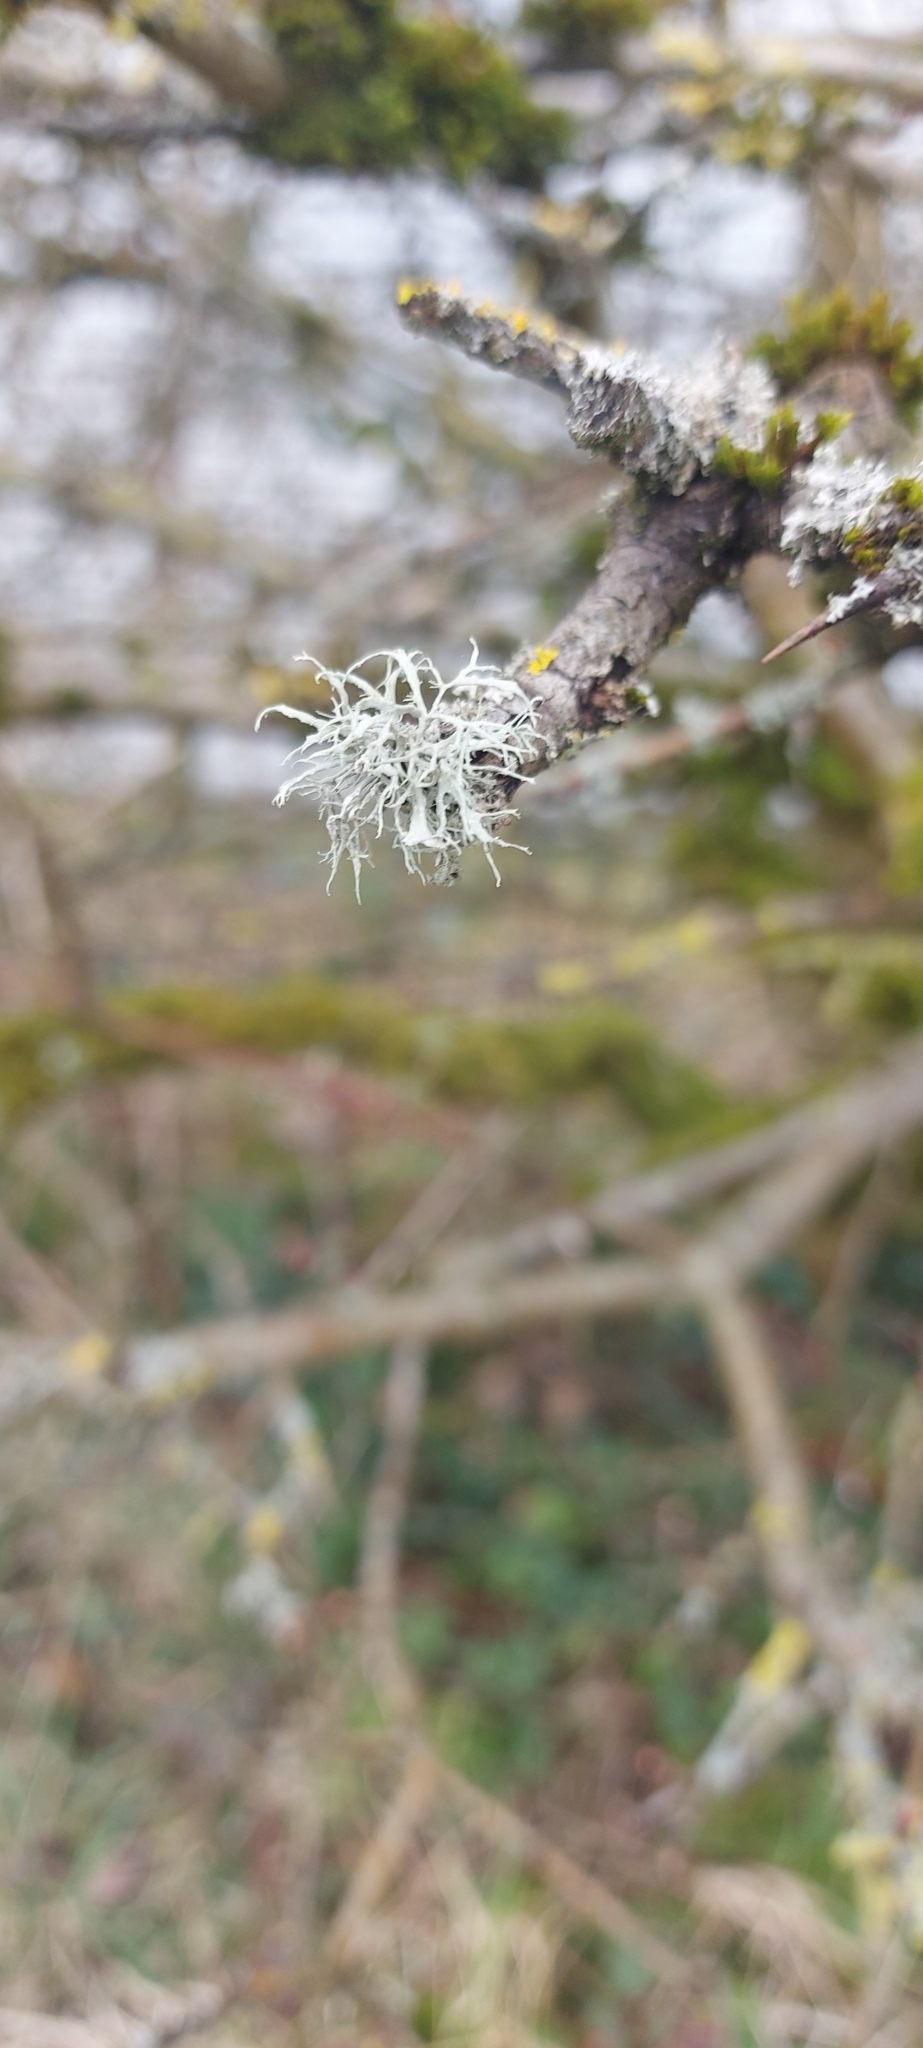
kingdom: Fungi
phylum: Ascomycota
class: Lecanoromycetes
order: Lecanorales
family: Ramalinaceae
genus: Ramalina
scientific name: Ramalina farinacea
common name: Farinose cartilage lichen
